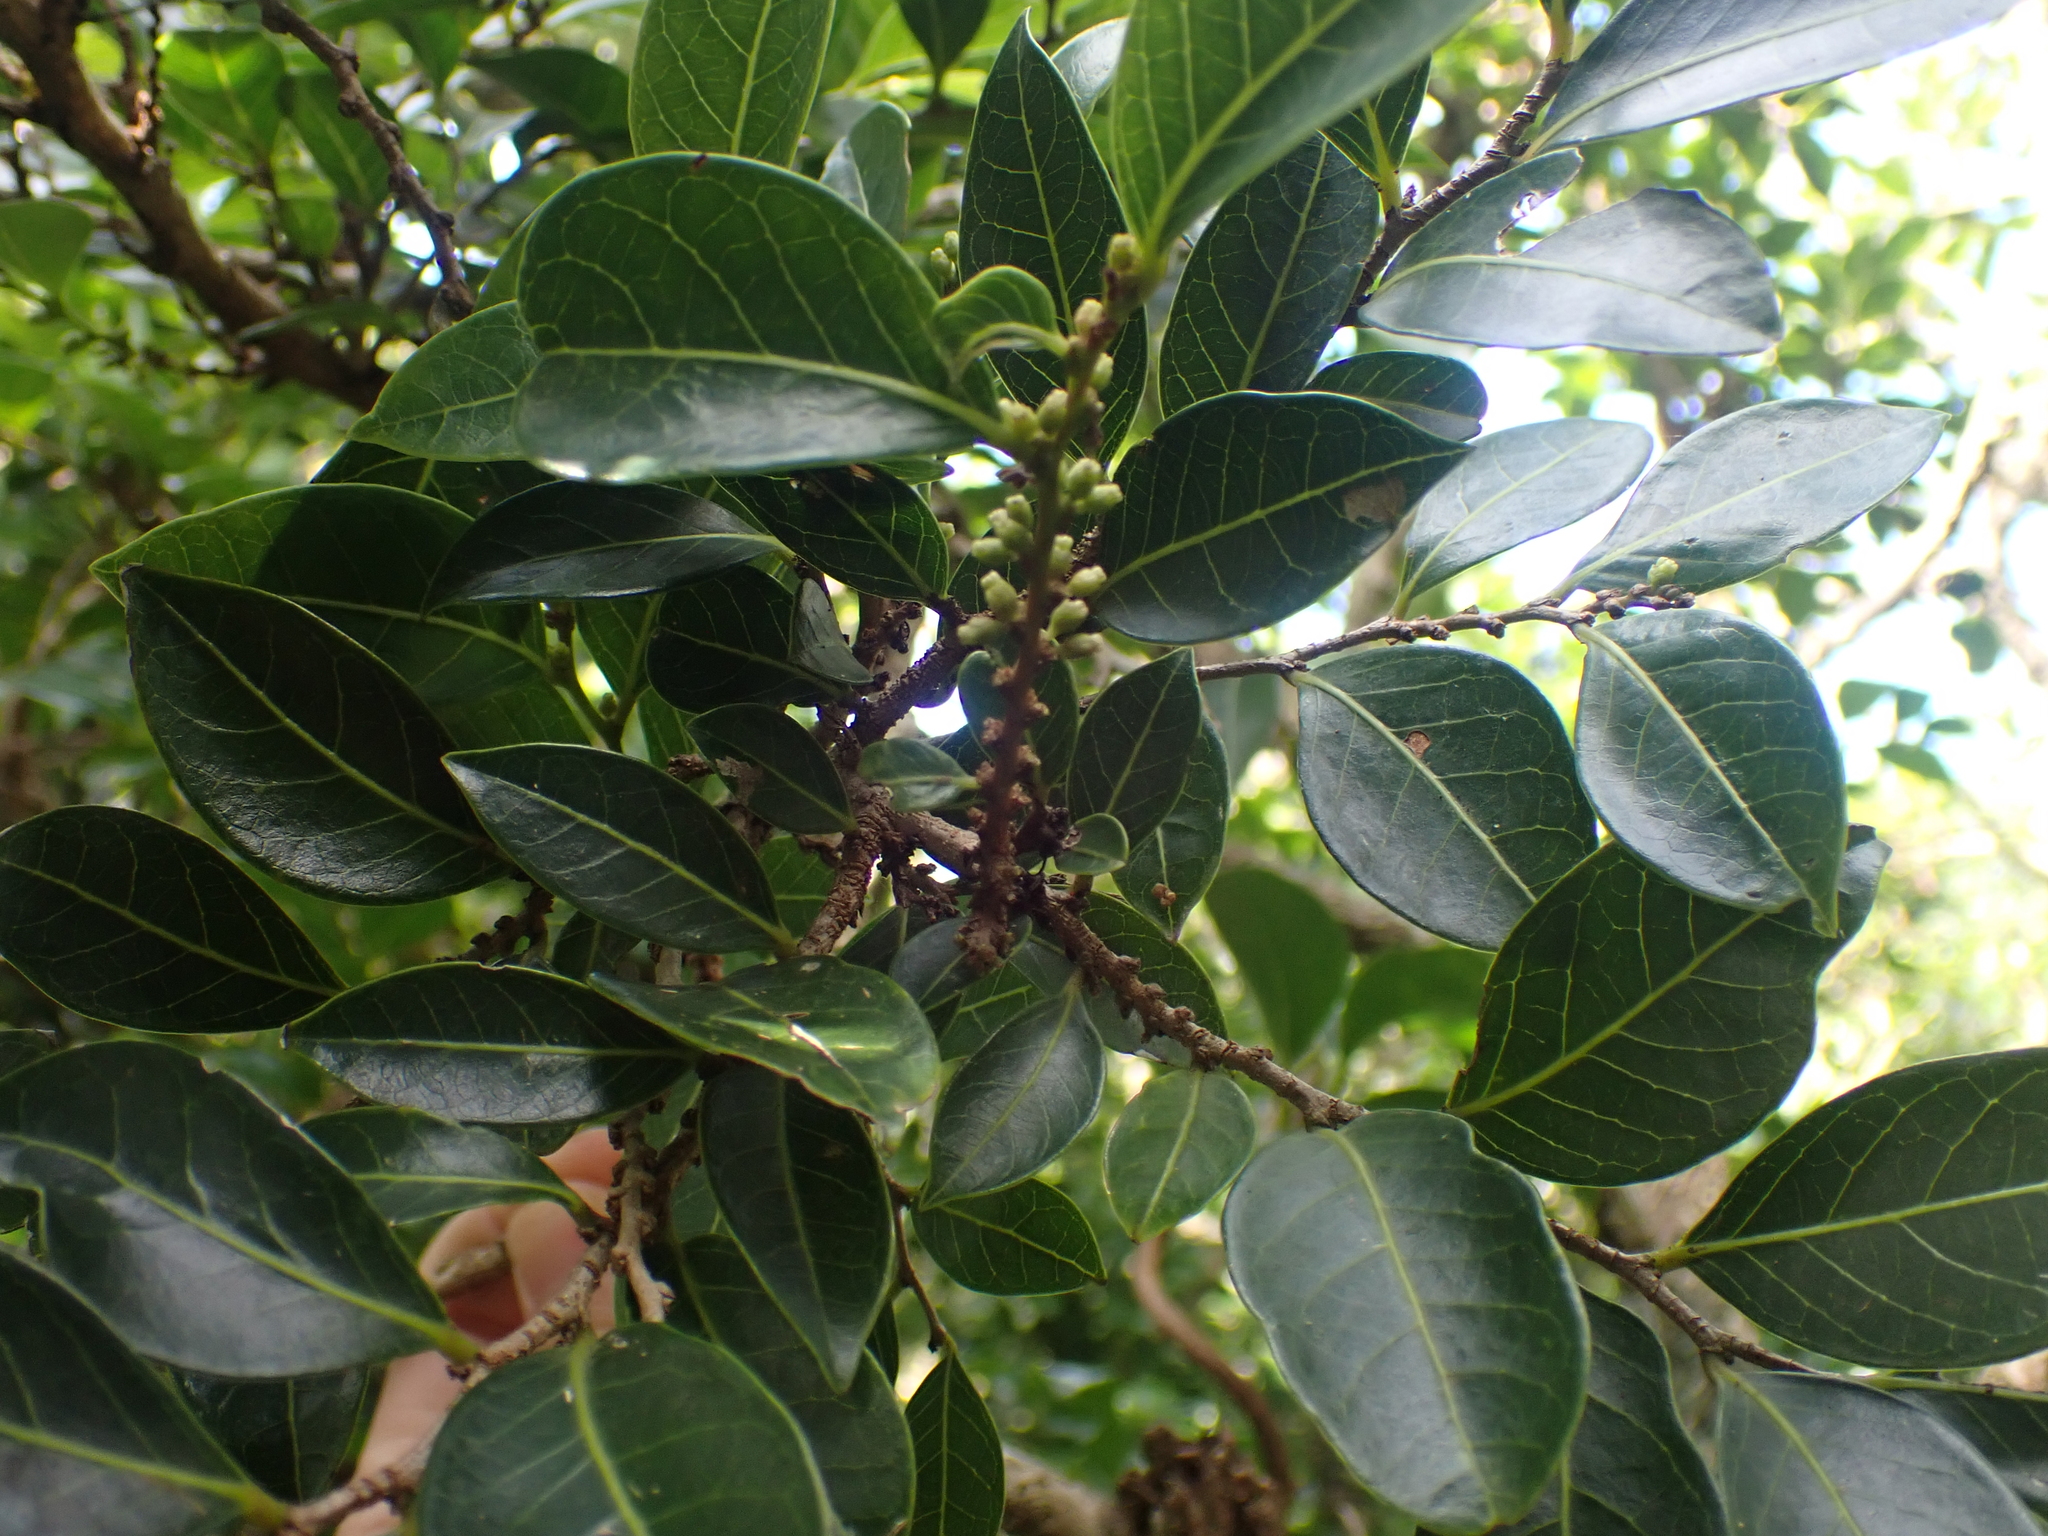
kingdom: Plantae
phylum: Tracheophyta
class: Magnoliopsida
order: Malpighiales
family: Phyllanthaceae
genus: Glochidion
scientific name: Glochidion rubrum
